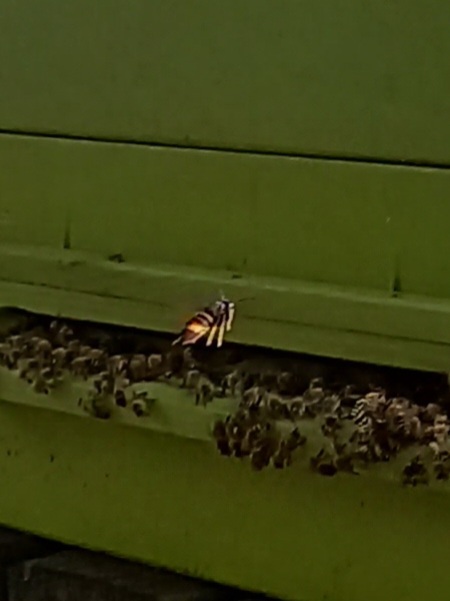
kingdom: Animalia
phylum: Arthropoda
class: Insecta
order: Hymenoptera
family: Vespidae
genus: Vespa
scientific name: Vespa velutina
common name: Asian hornet
